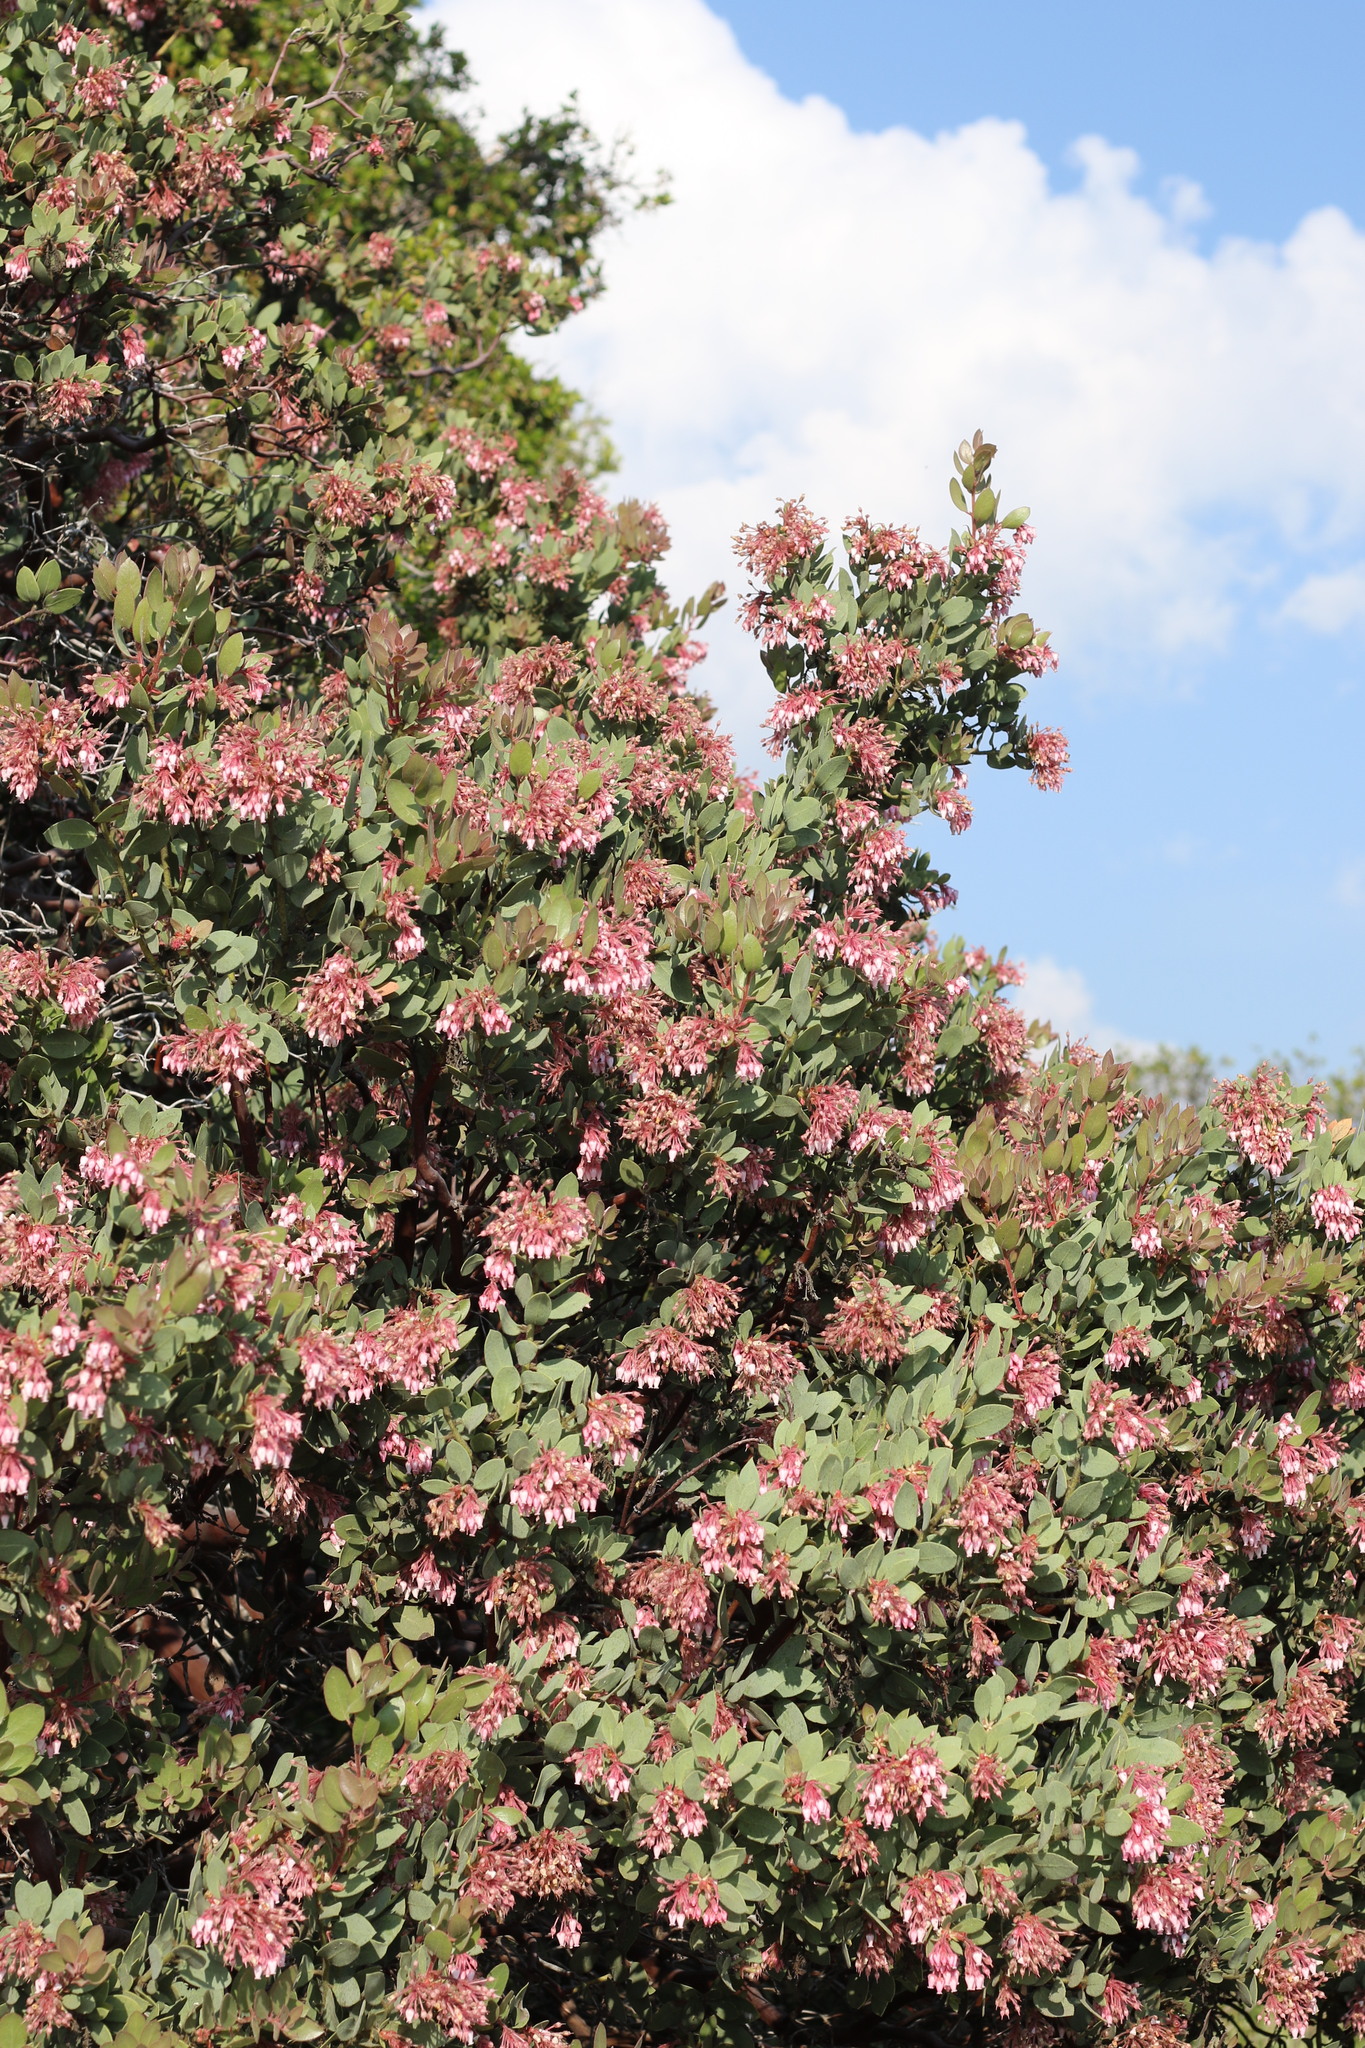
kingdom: Plantae
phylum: Tracheophyta
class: Magnoliopsida
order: Ericales
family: Ericaceae
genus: Arctostaphylos
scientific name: Arctostaphylos pringlei
